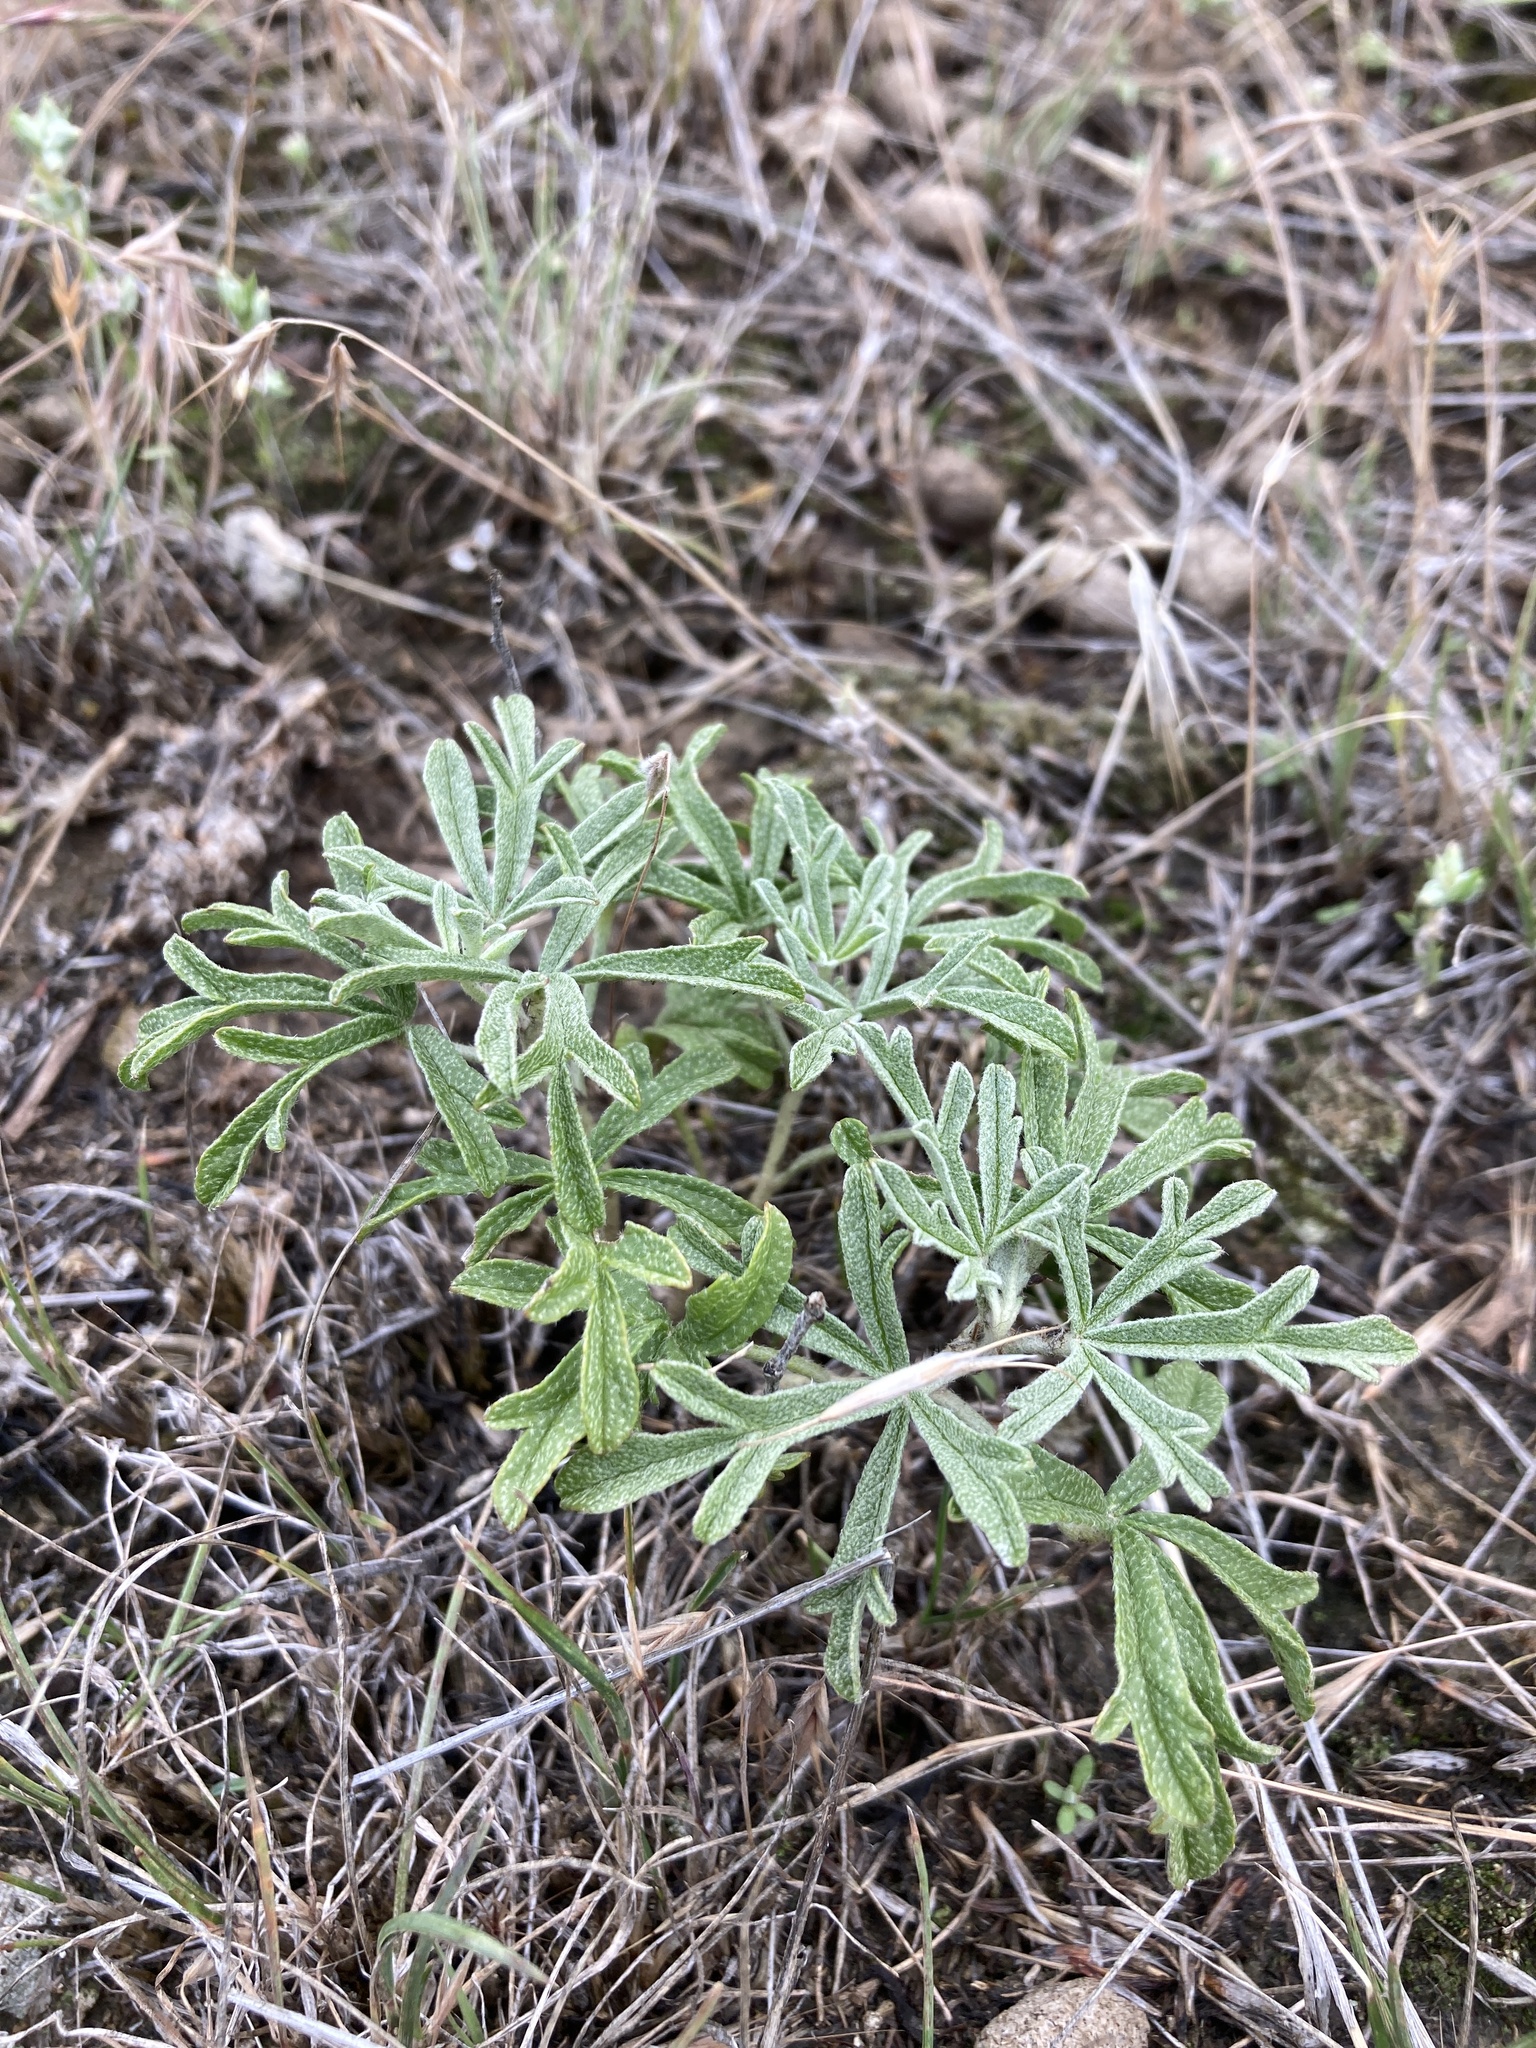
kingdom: Plantae
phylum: Tracheophyta
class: Magnoliopsida
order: Malvales
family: Malvaceae
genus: Sphaeralcea
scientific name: Sphaeralcea coccinea
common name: Moss-rose
